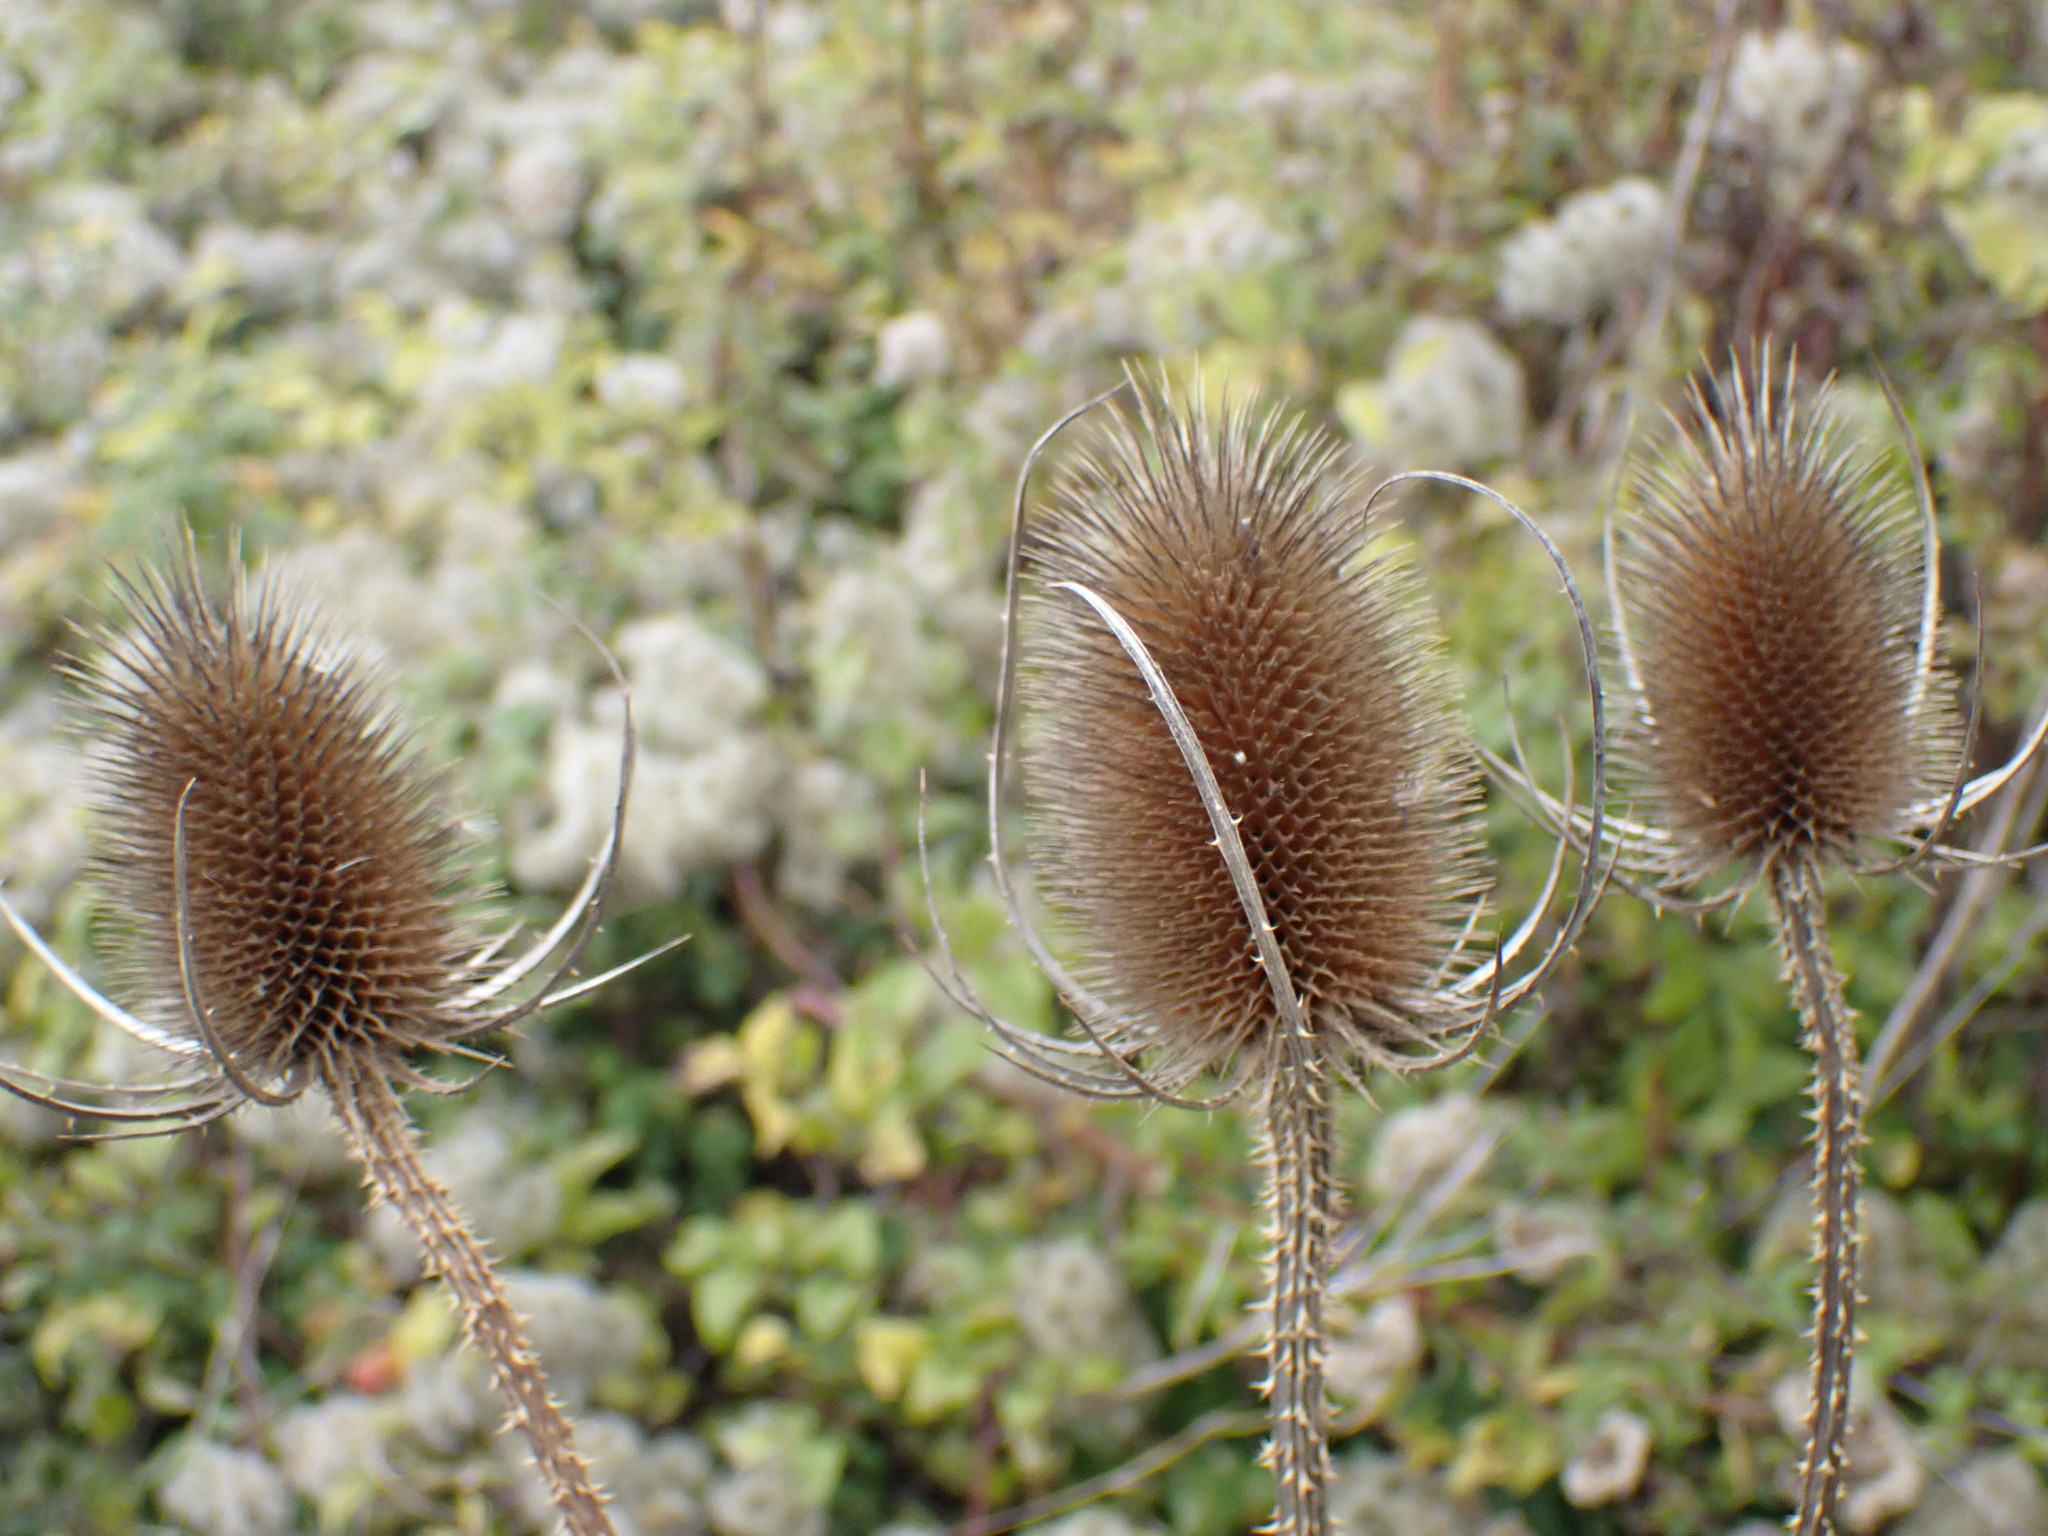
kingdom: Plantae
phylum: Tracheophyta
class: Magnoliopsida
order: Dipsacales
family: Caprifoliaceae
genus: Dipsacus
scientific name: Dipsacus fullonum
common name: Teasel
